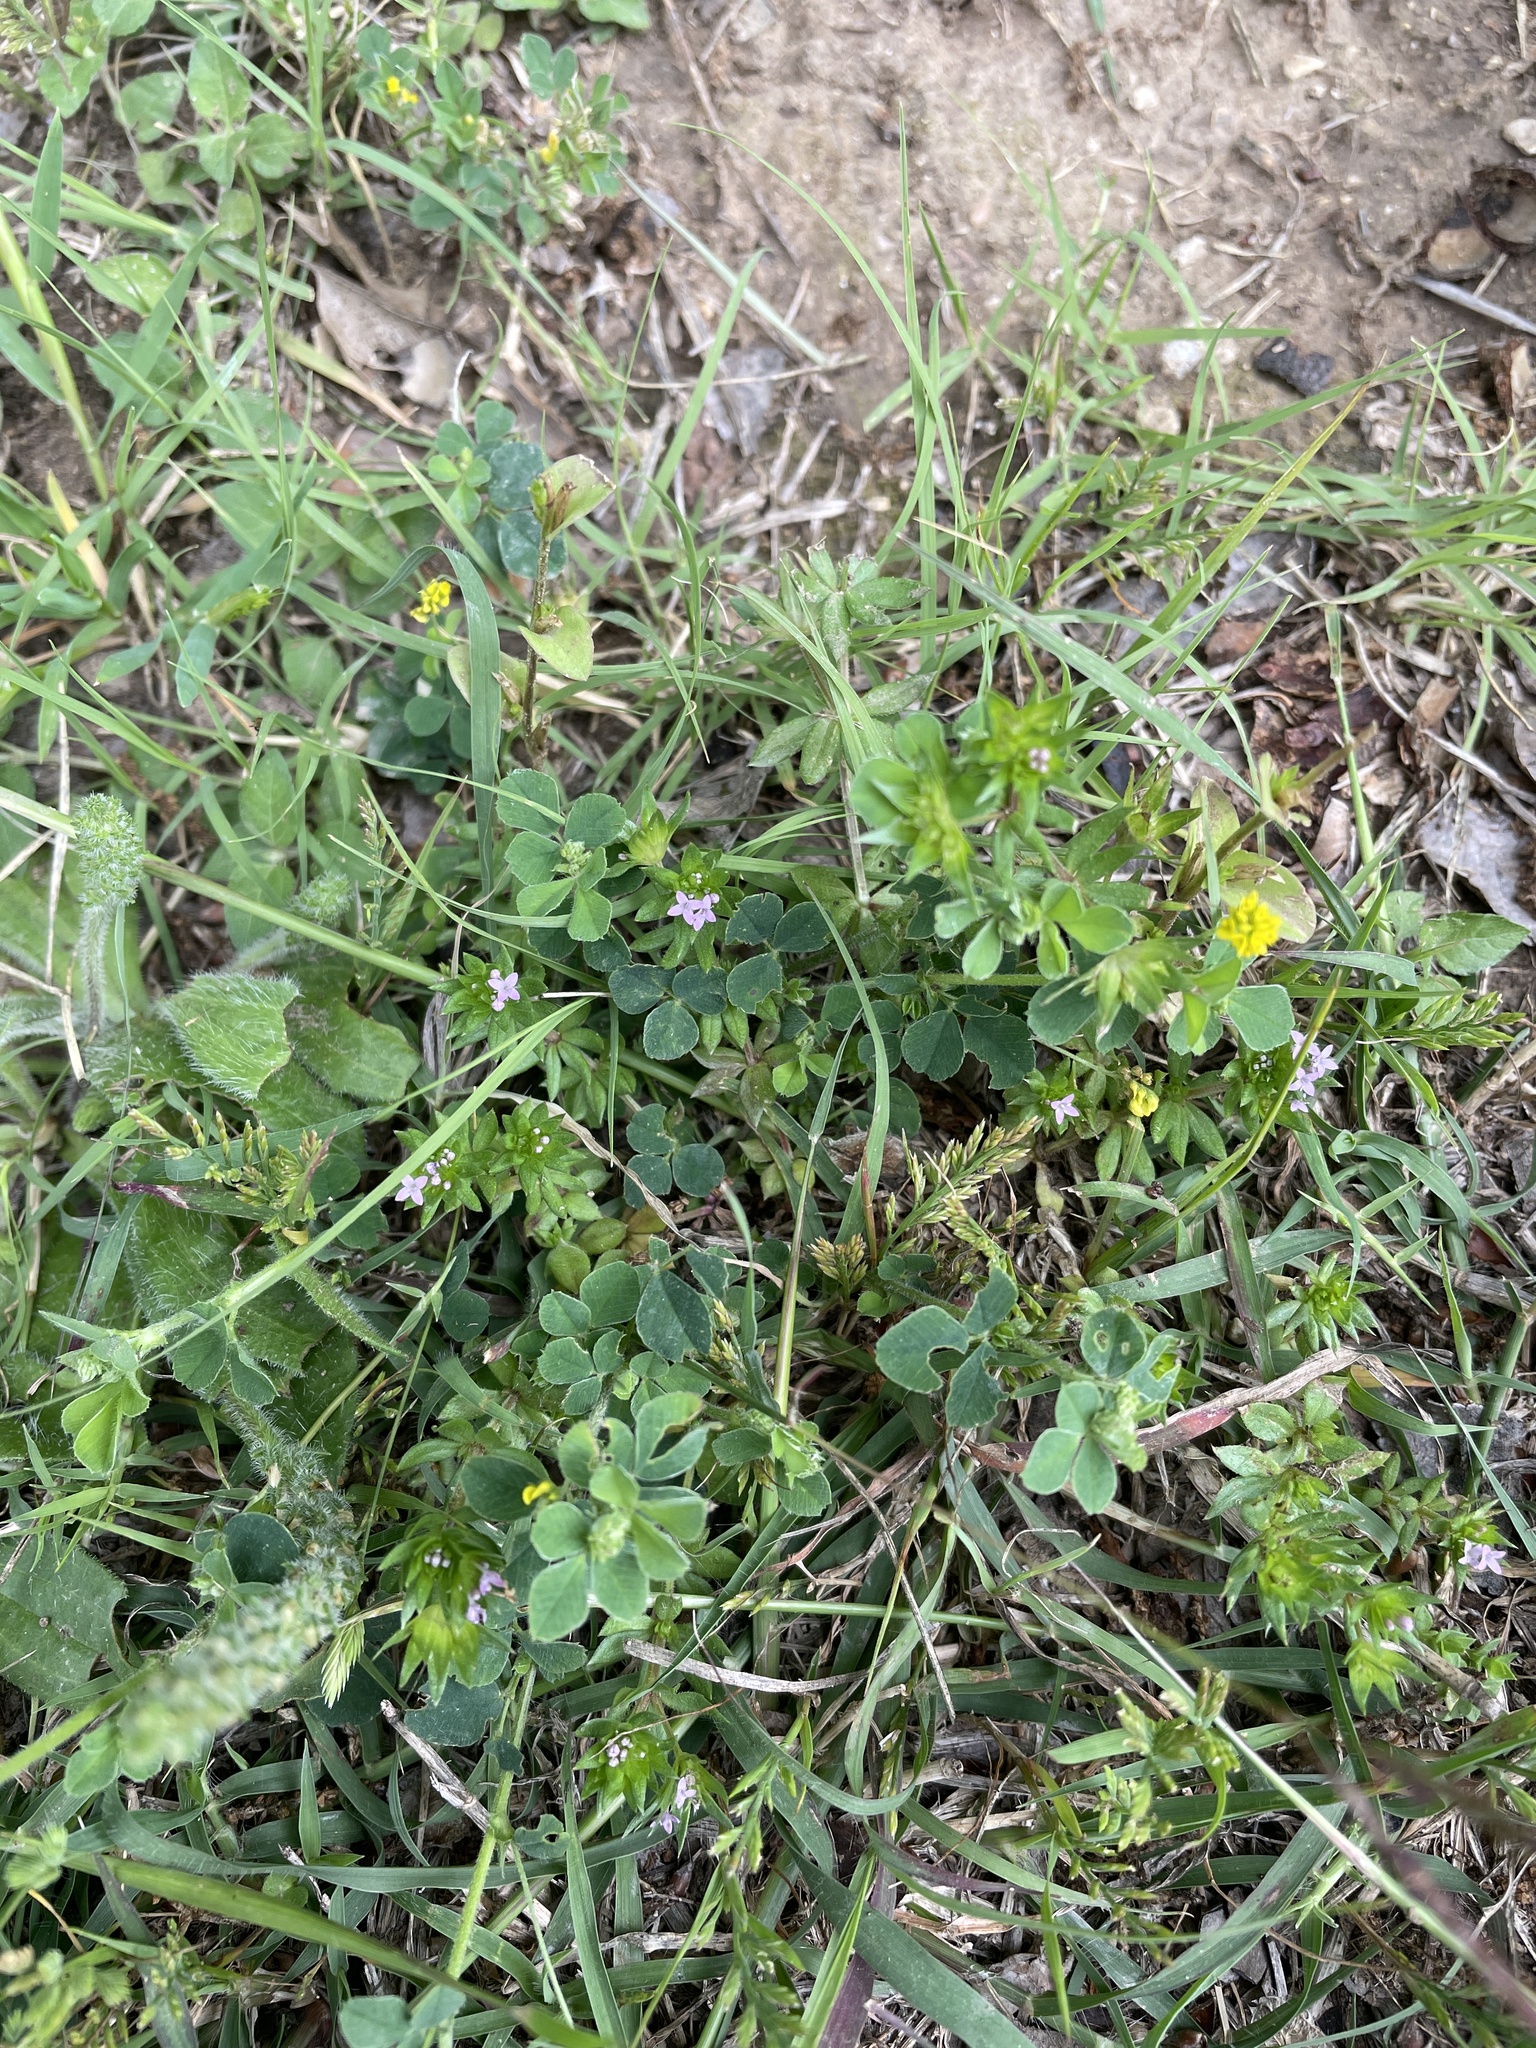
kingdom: Plantae
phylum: Tracheophyta
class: Magnoliopsida
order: Gentianales
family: Rubiaceae
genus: Sherardia
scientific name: Sherardia arvensis
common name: Field madder
